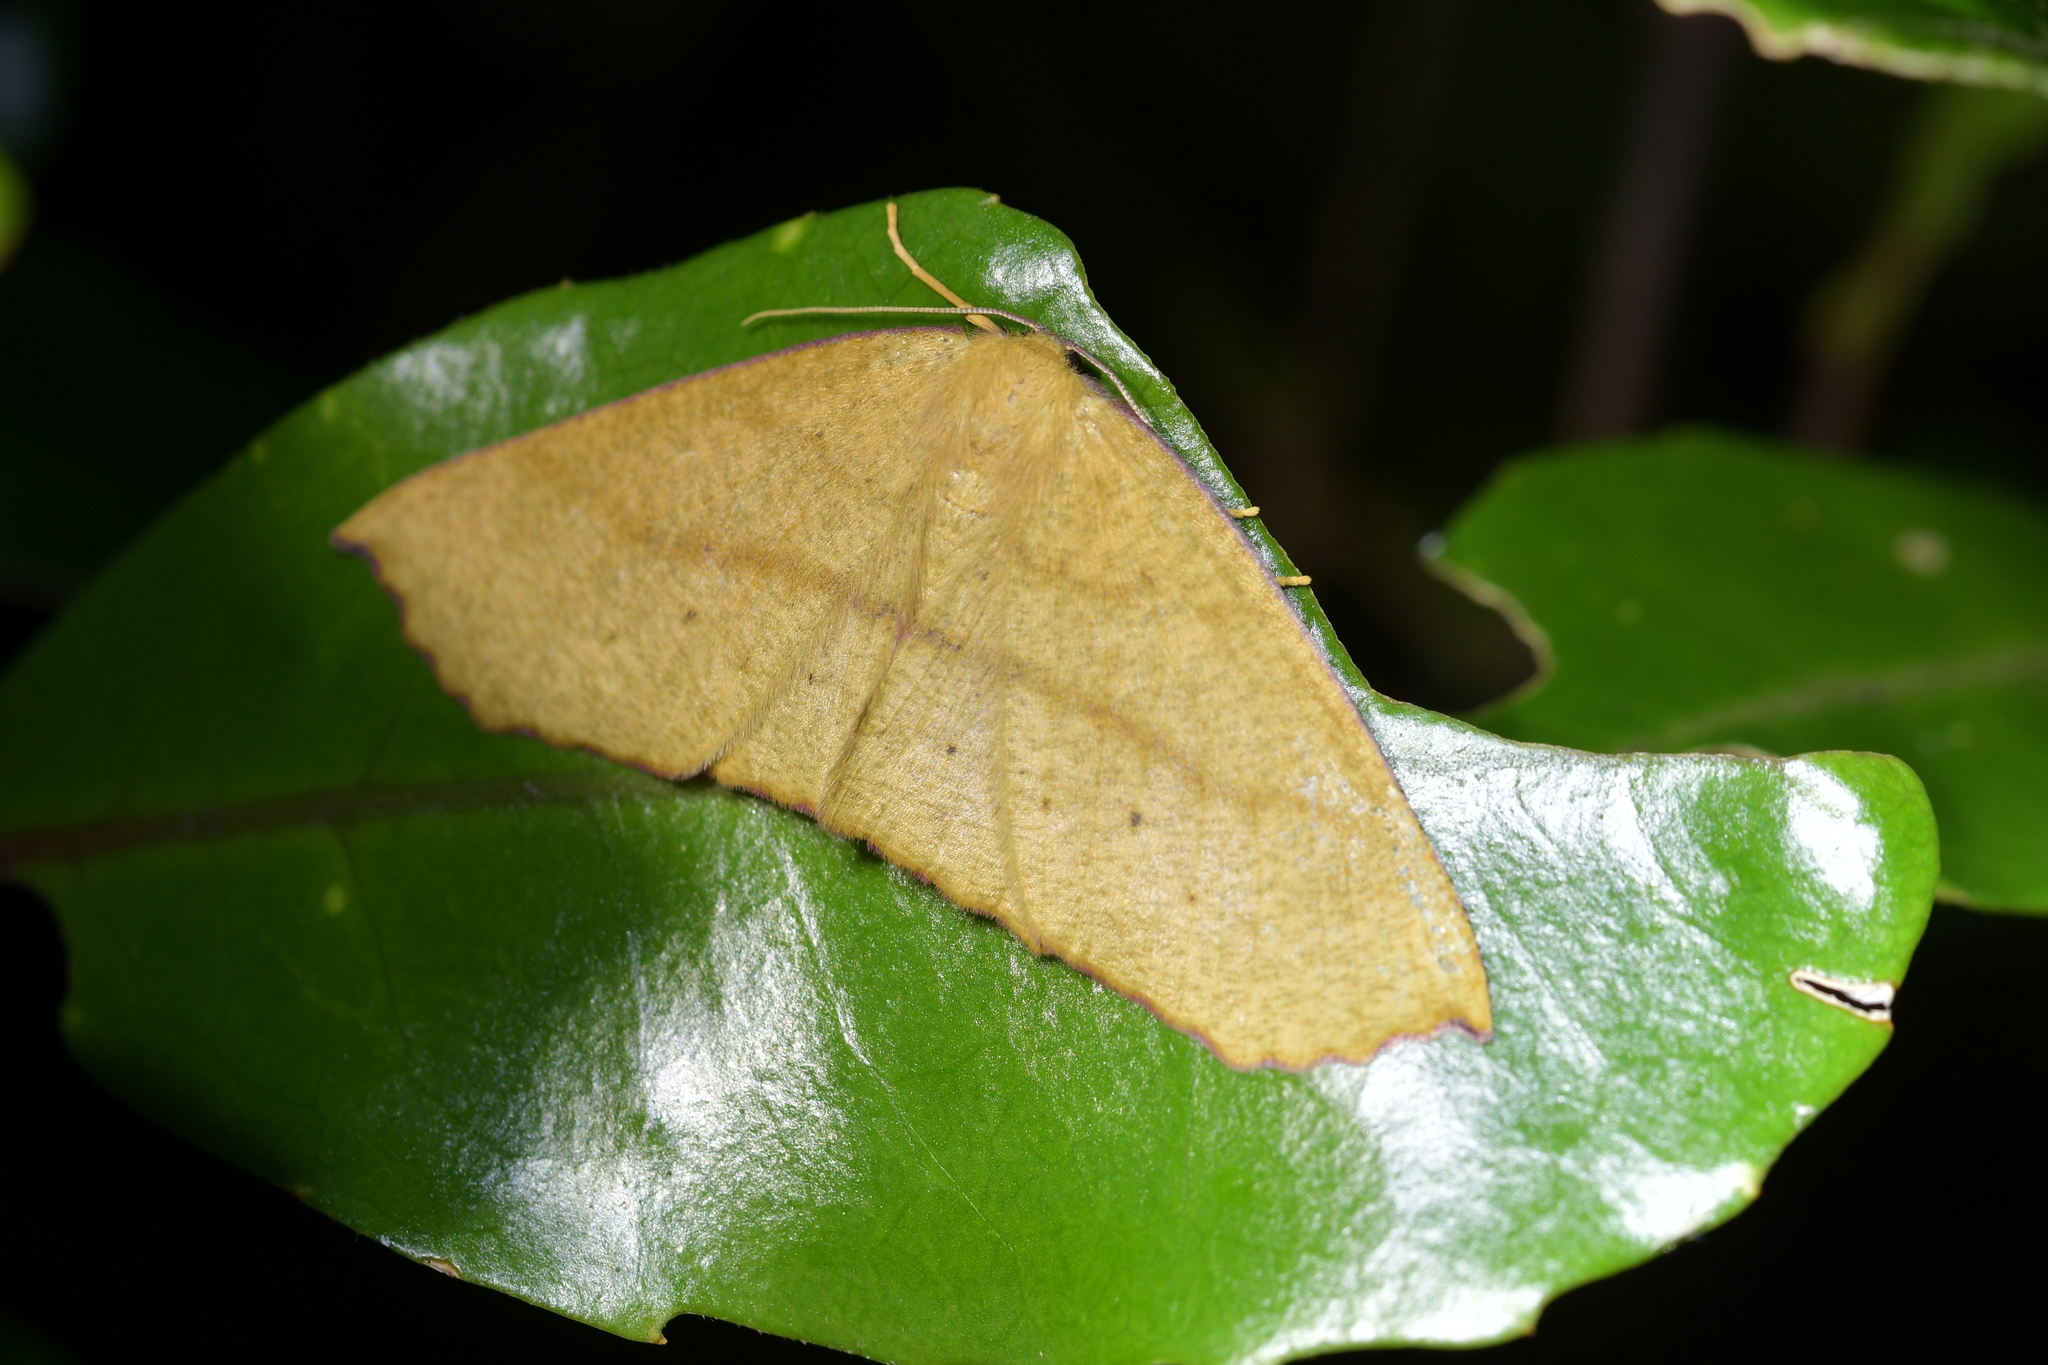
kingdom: Animalia
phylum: Arthropoda
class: Insecta
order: Lepidoptera
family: Geometridae
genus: Xyridacma
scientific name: Xyridacma ustaria
